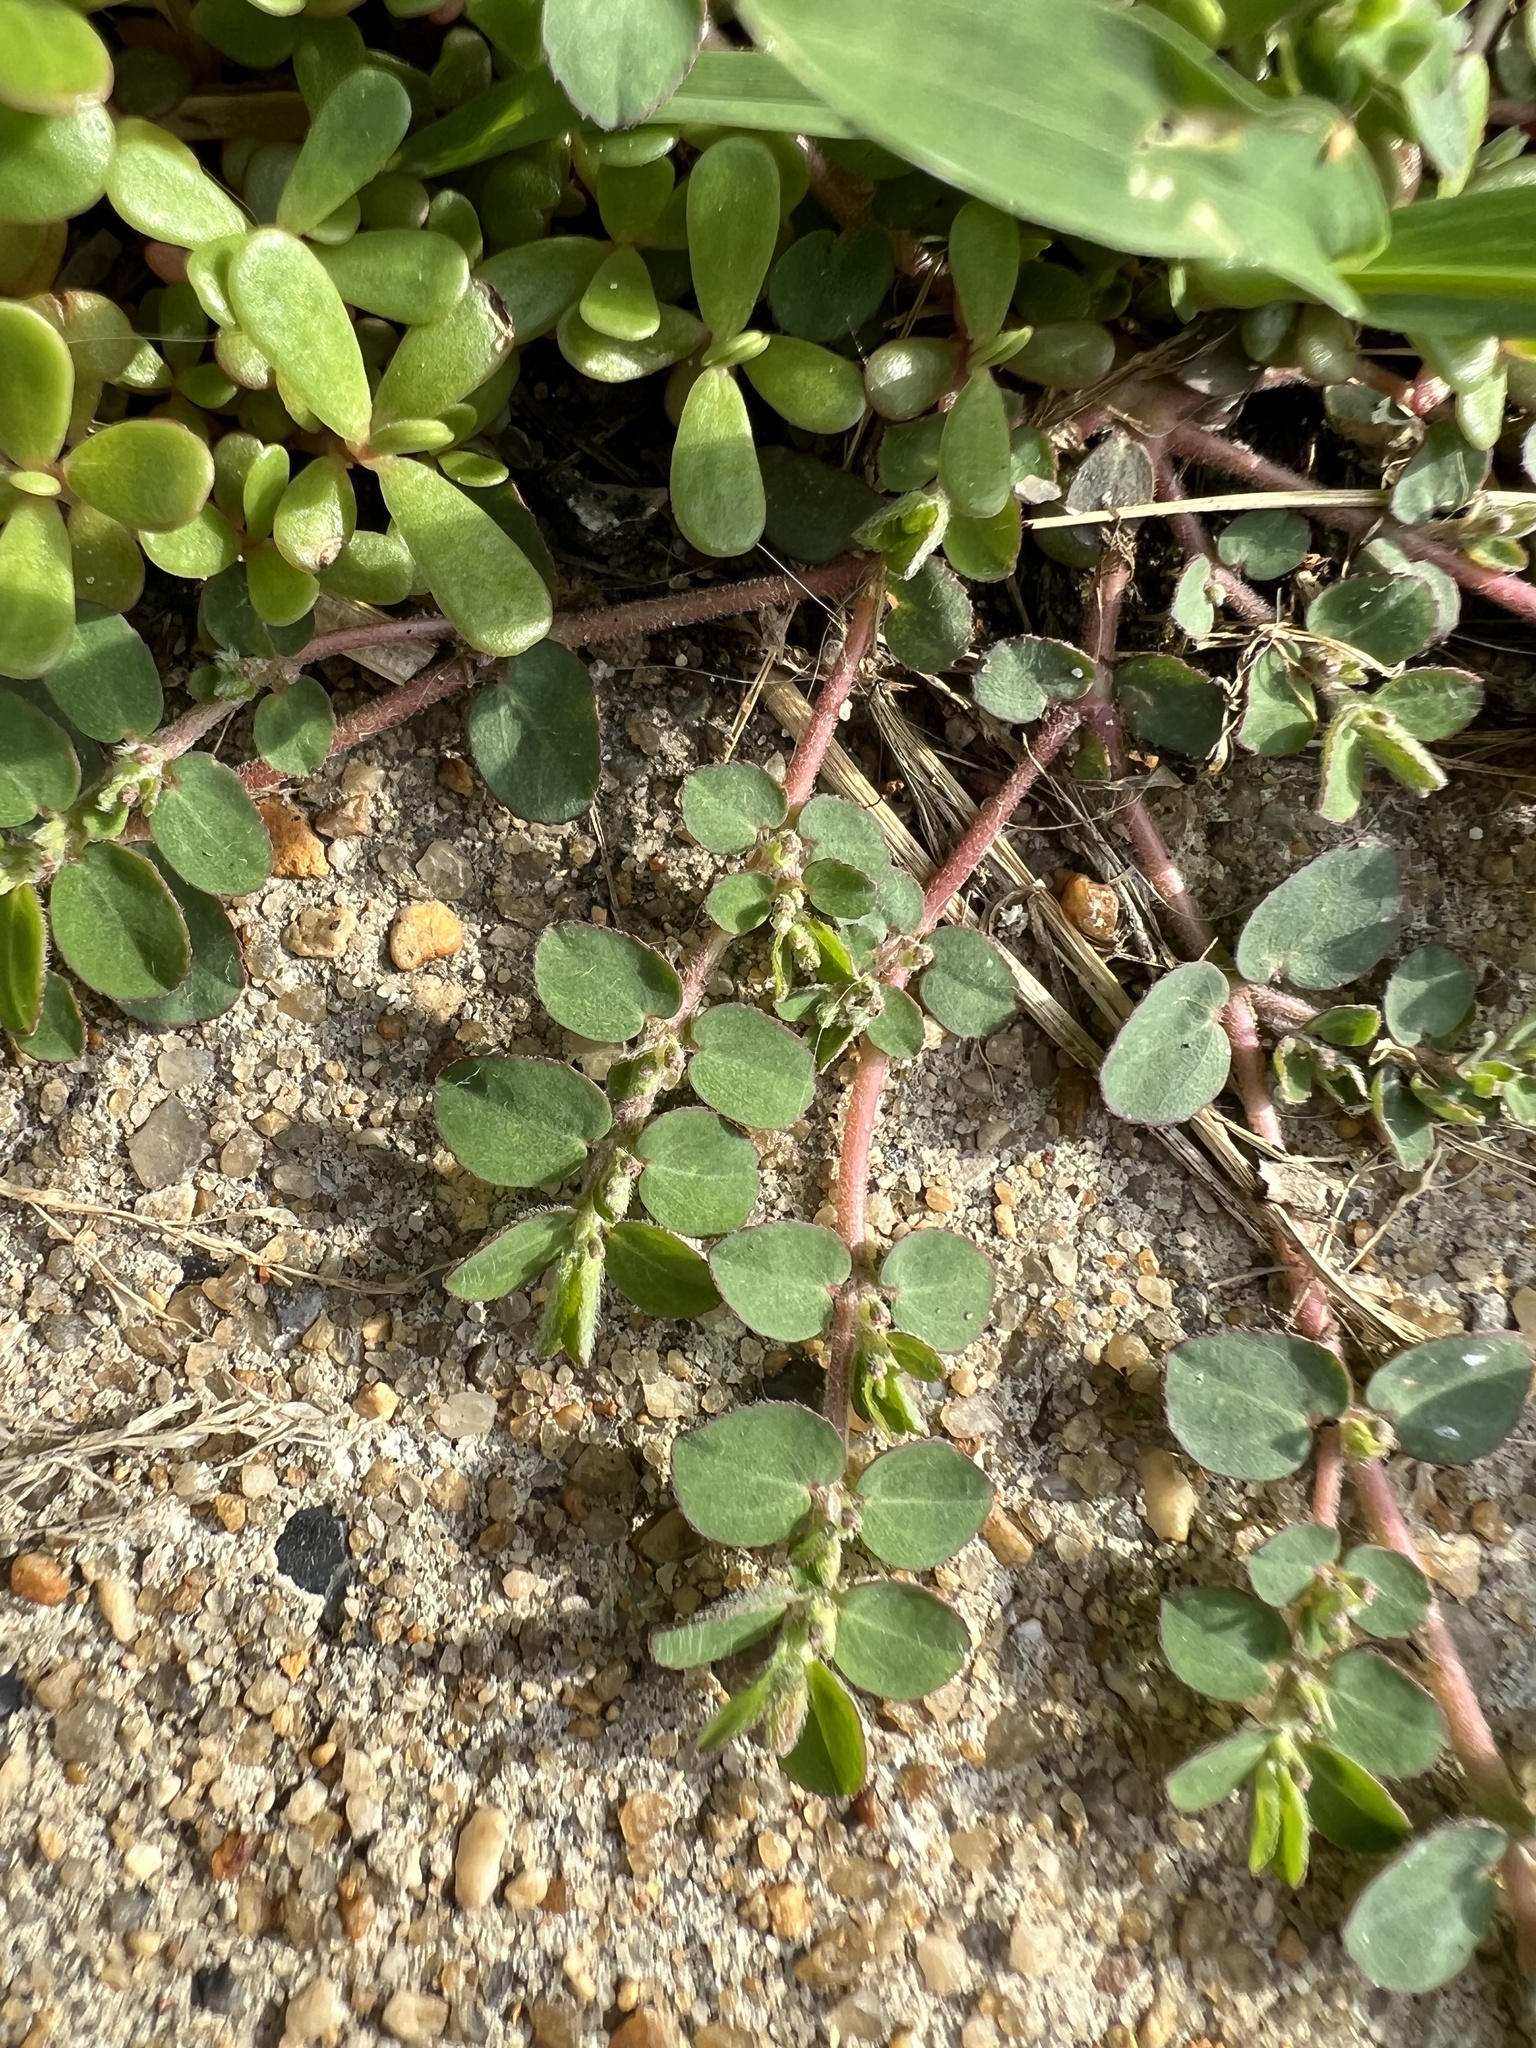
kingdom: Plantae
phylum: Tracheophyta
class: Magnoliopsida
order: Malpighiales
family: Euphorbiaceae
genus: Euphorbia
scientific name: Euphorbia prostrata
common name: Prostrate sandmat
